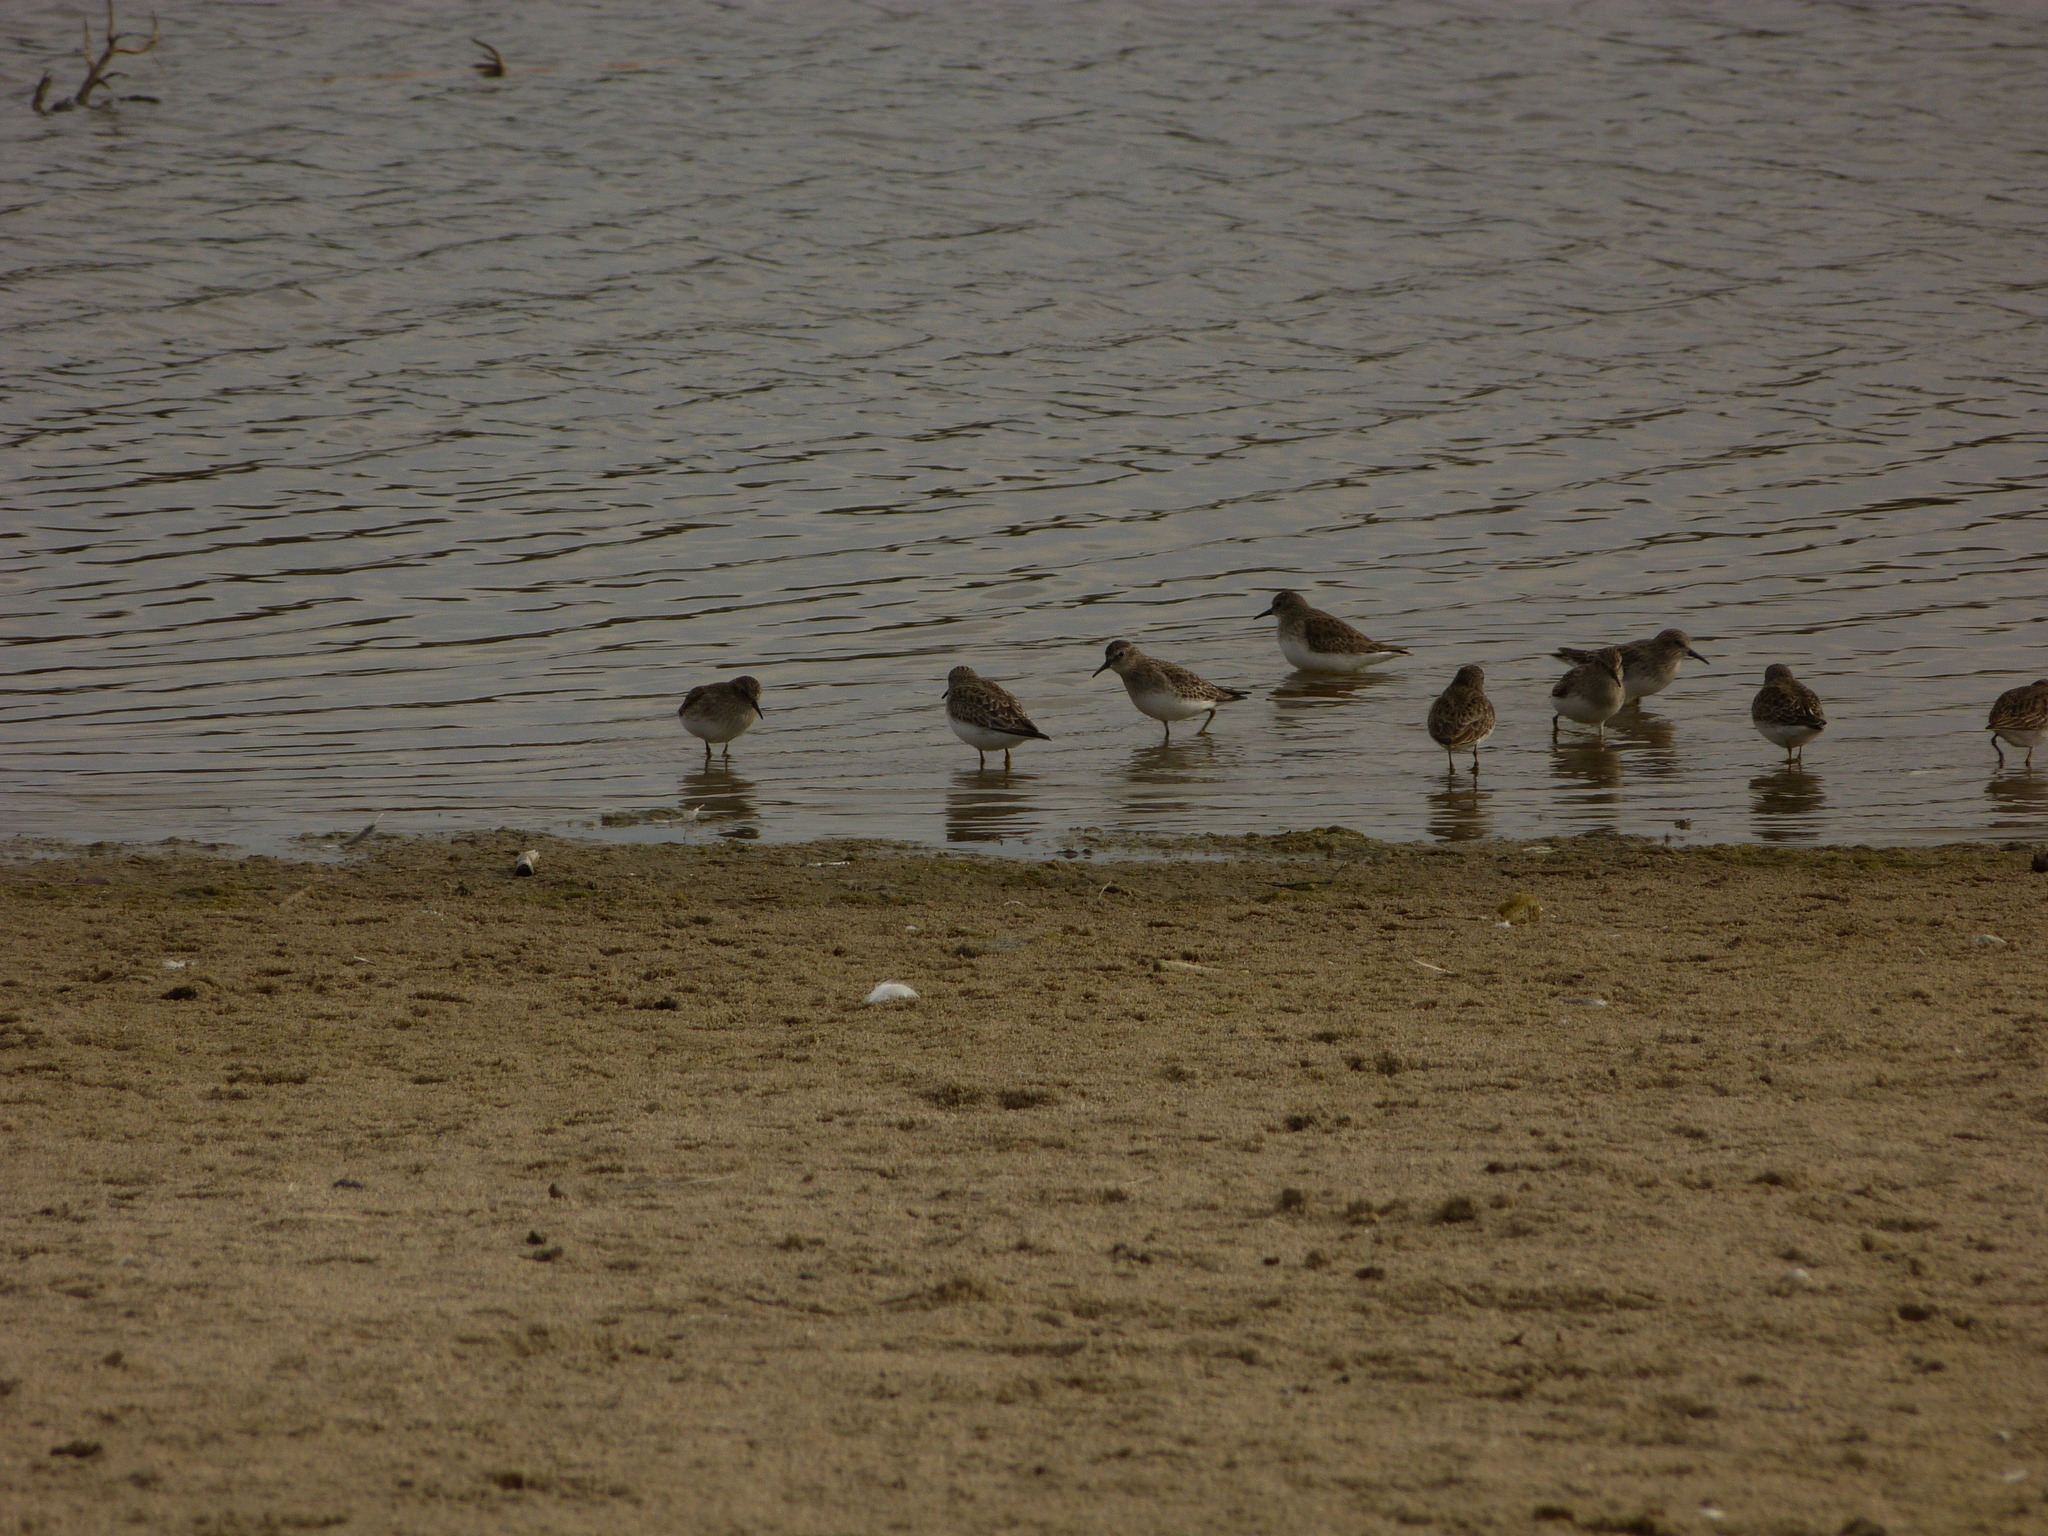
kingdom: Animalia
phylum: Chordata
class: Aves
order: Charadriiformes
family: Scolopacidae
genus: Calidris
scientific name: Calidris minutilla
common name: Least sandpiper
